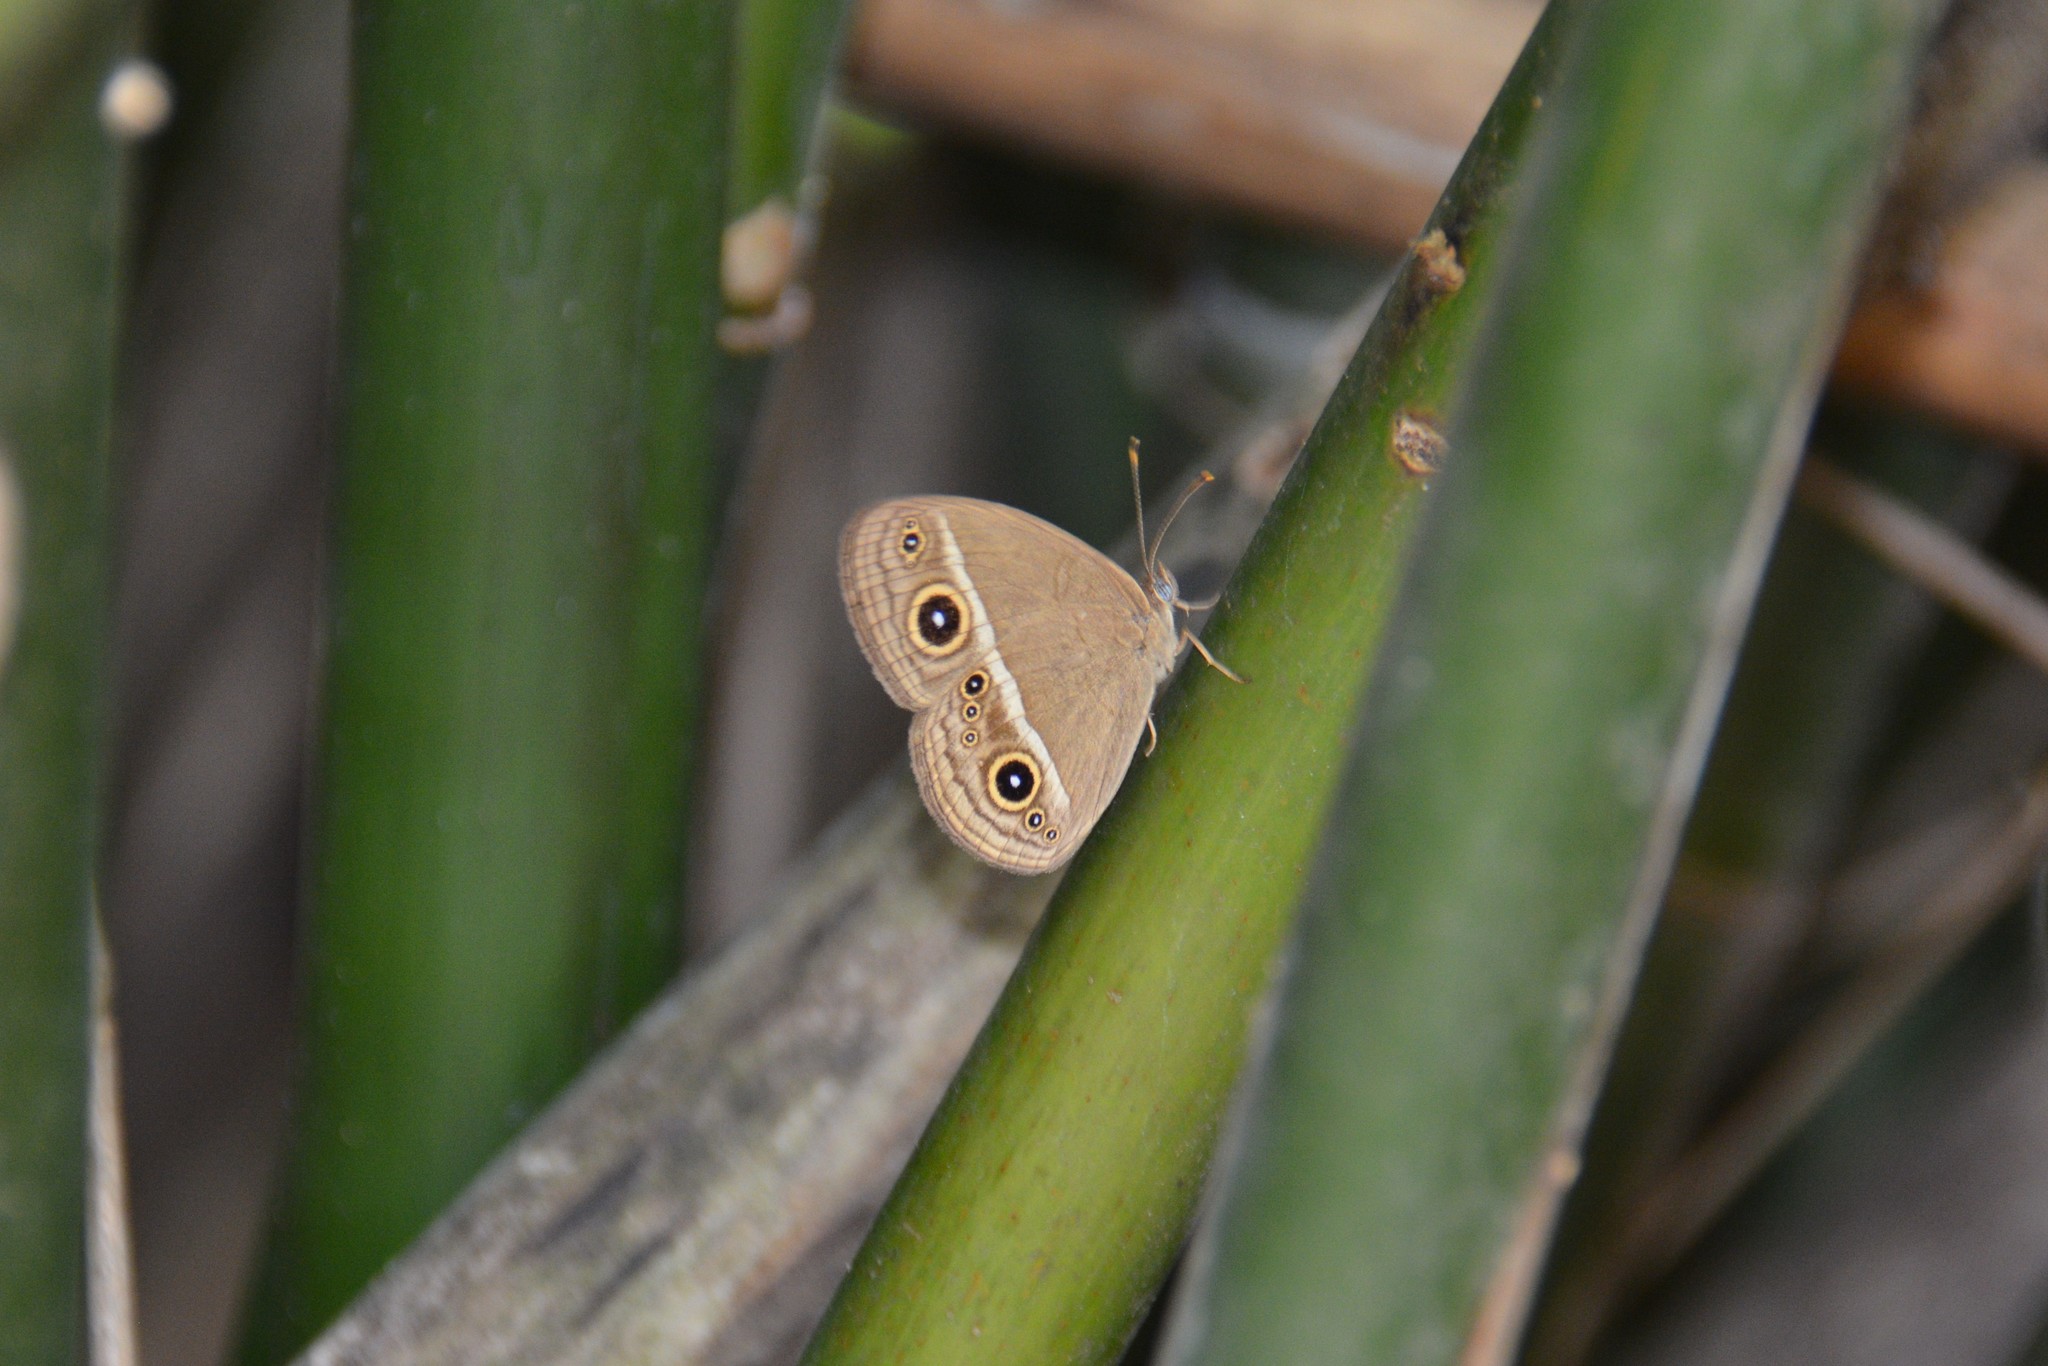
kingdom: Animalia
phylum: Arthropoda
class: Insecta
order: Lepidoptera
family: Nymphalidae
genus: Mycalesis
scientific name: Mycalesis gotama
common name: Chinese bushbrown
